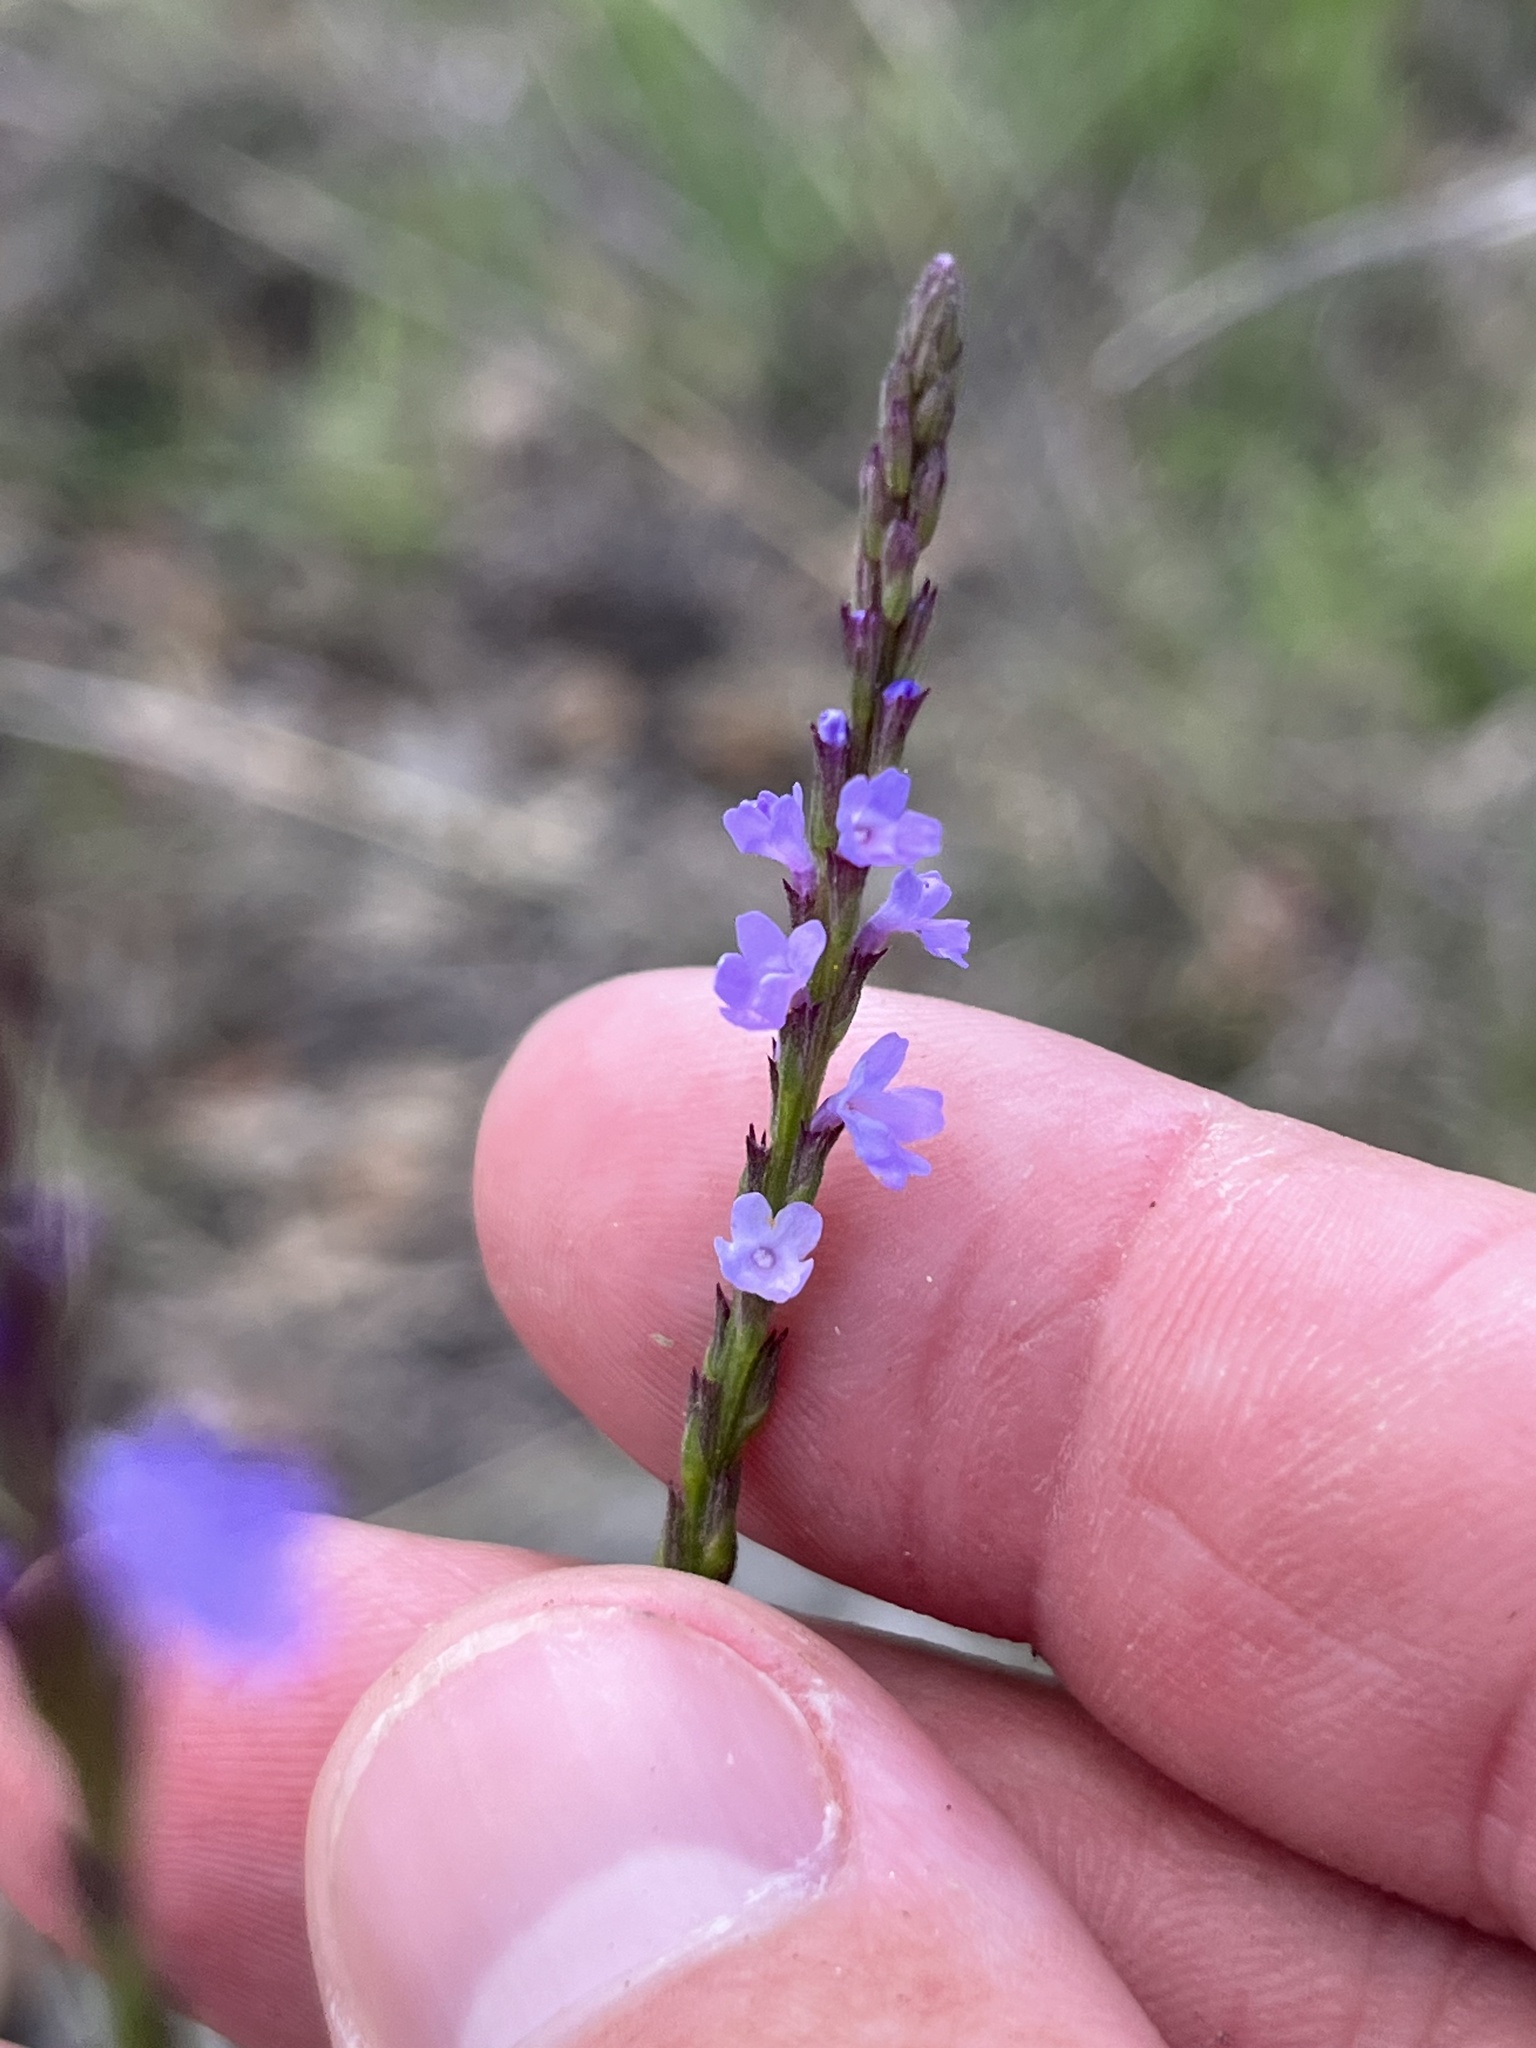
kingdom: Plantae
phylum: Tracheophyta
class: Magnoliopsida
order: Lamiales
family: Verbenaceae
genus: Verbena
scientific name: Verbena halei
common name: Texas vervain
